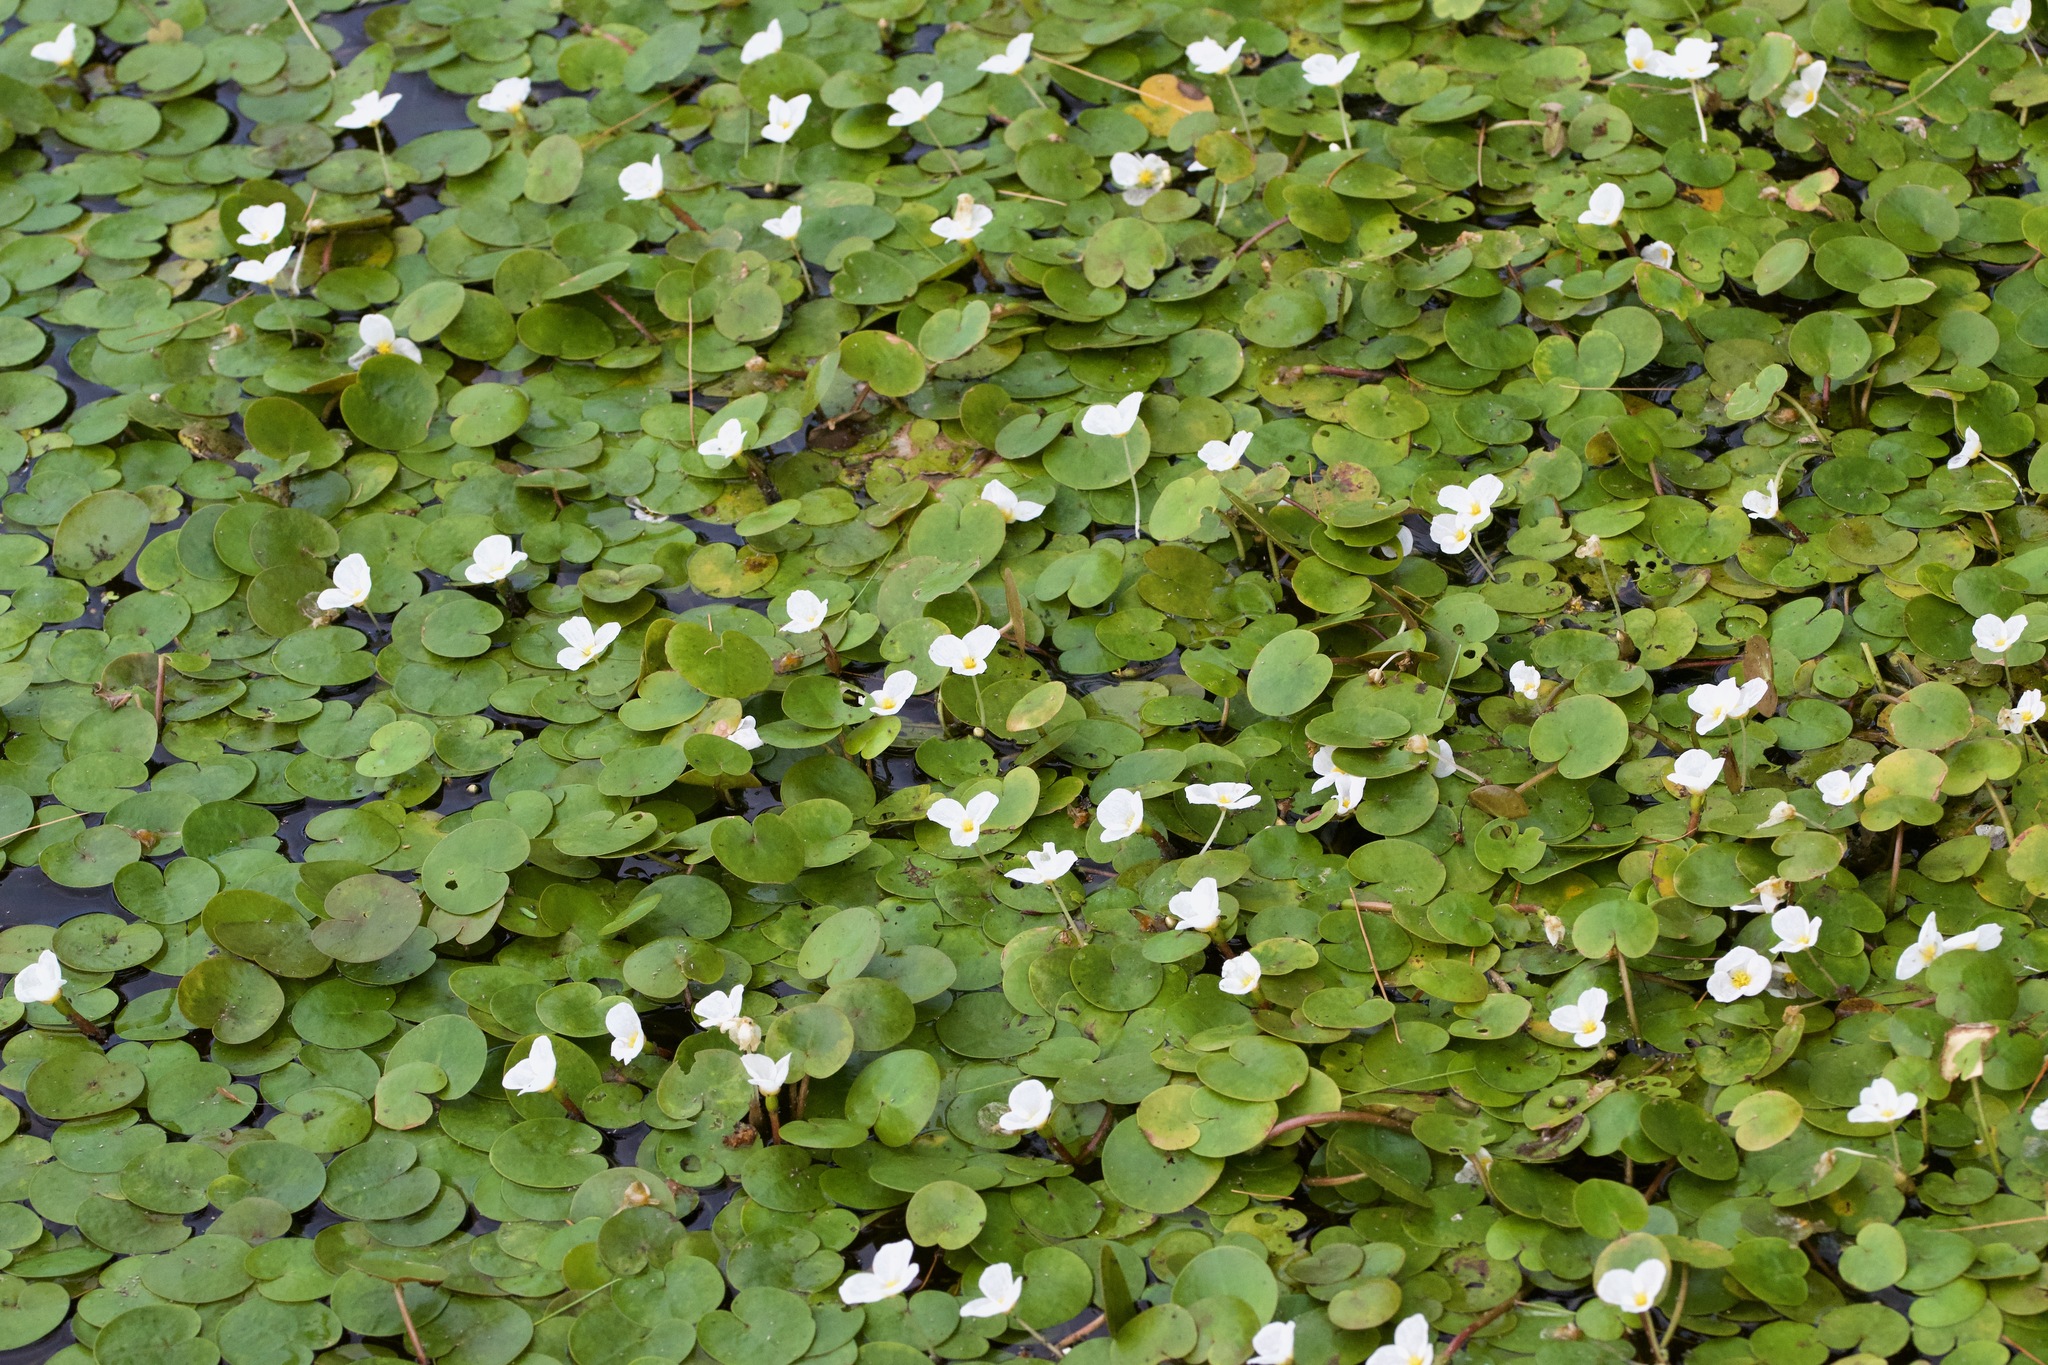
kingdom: Plantae
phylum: Tracheophyta
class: Liliopsida
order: Alismatales
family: Hydrocharitaceae
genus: Hydrocharis
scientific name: Hydrocharis morsus-ranae
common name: Frogbit
